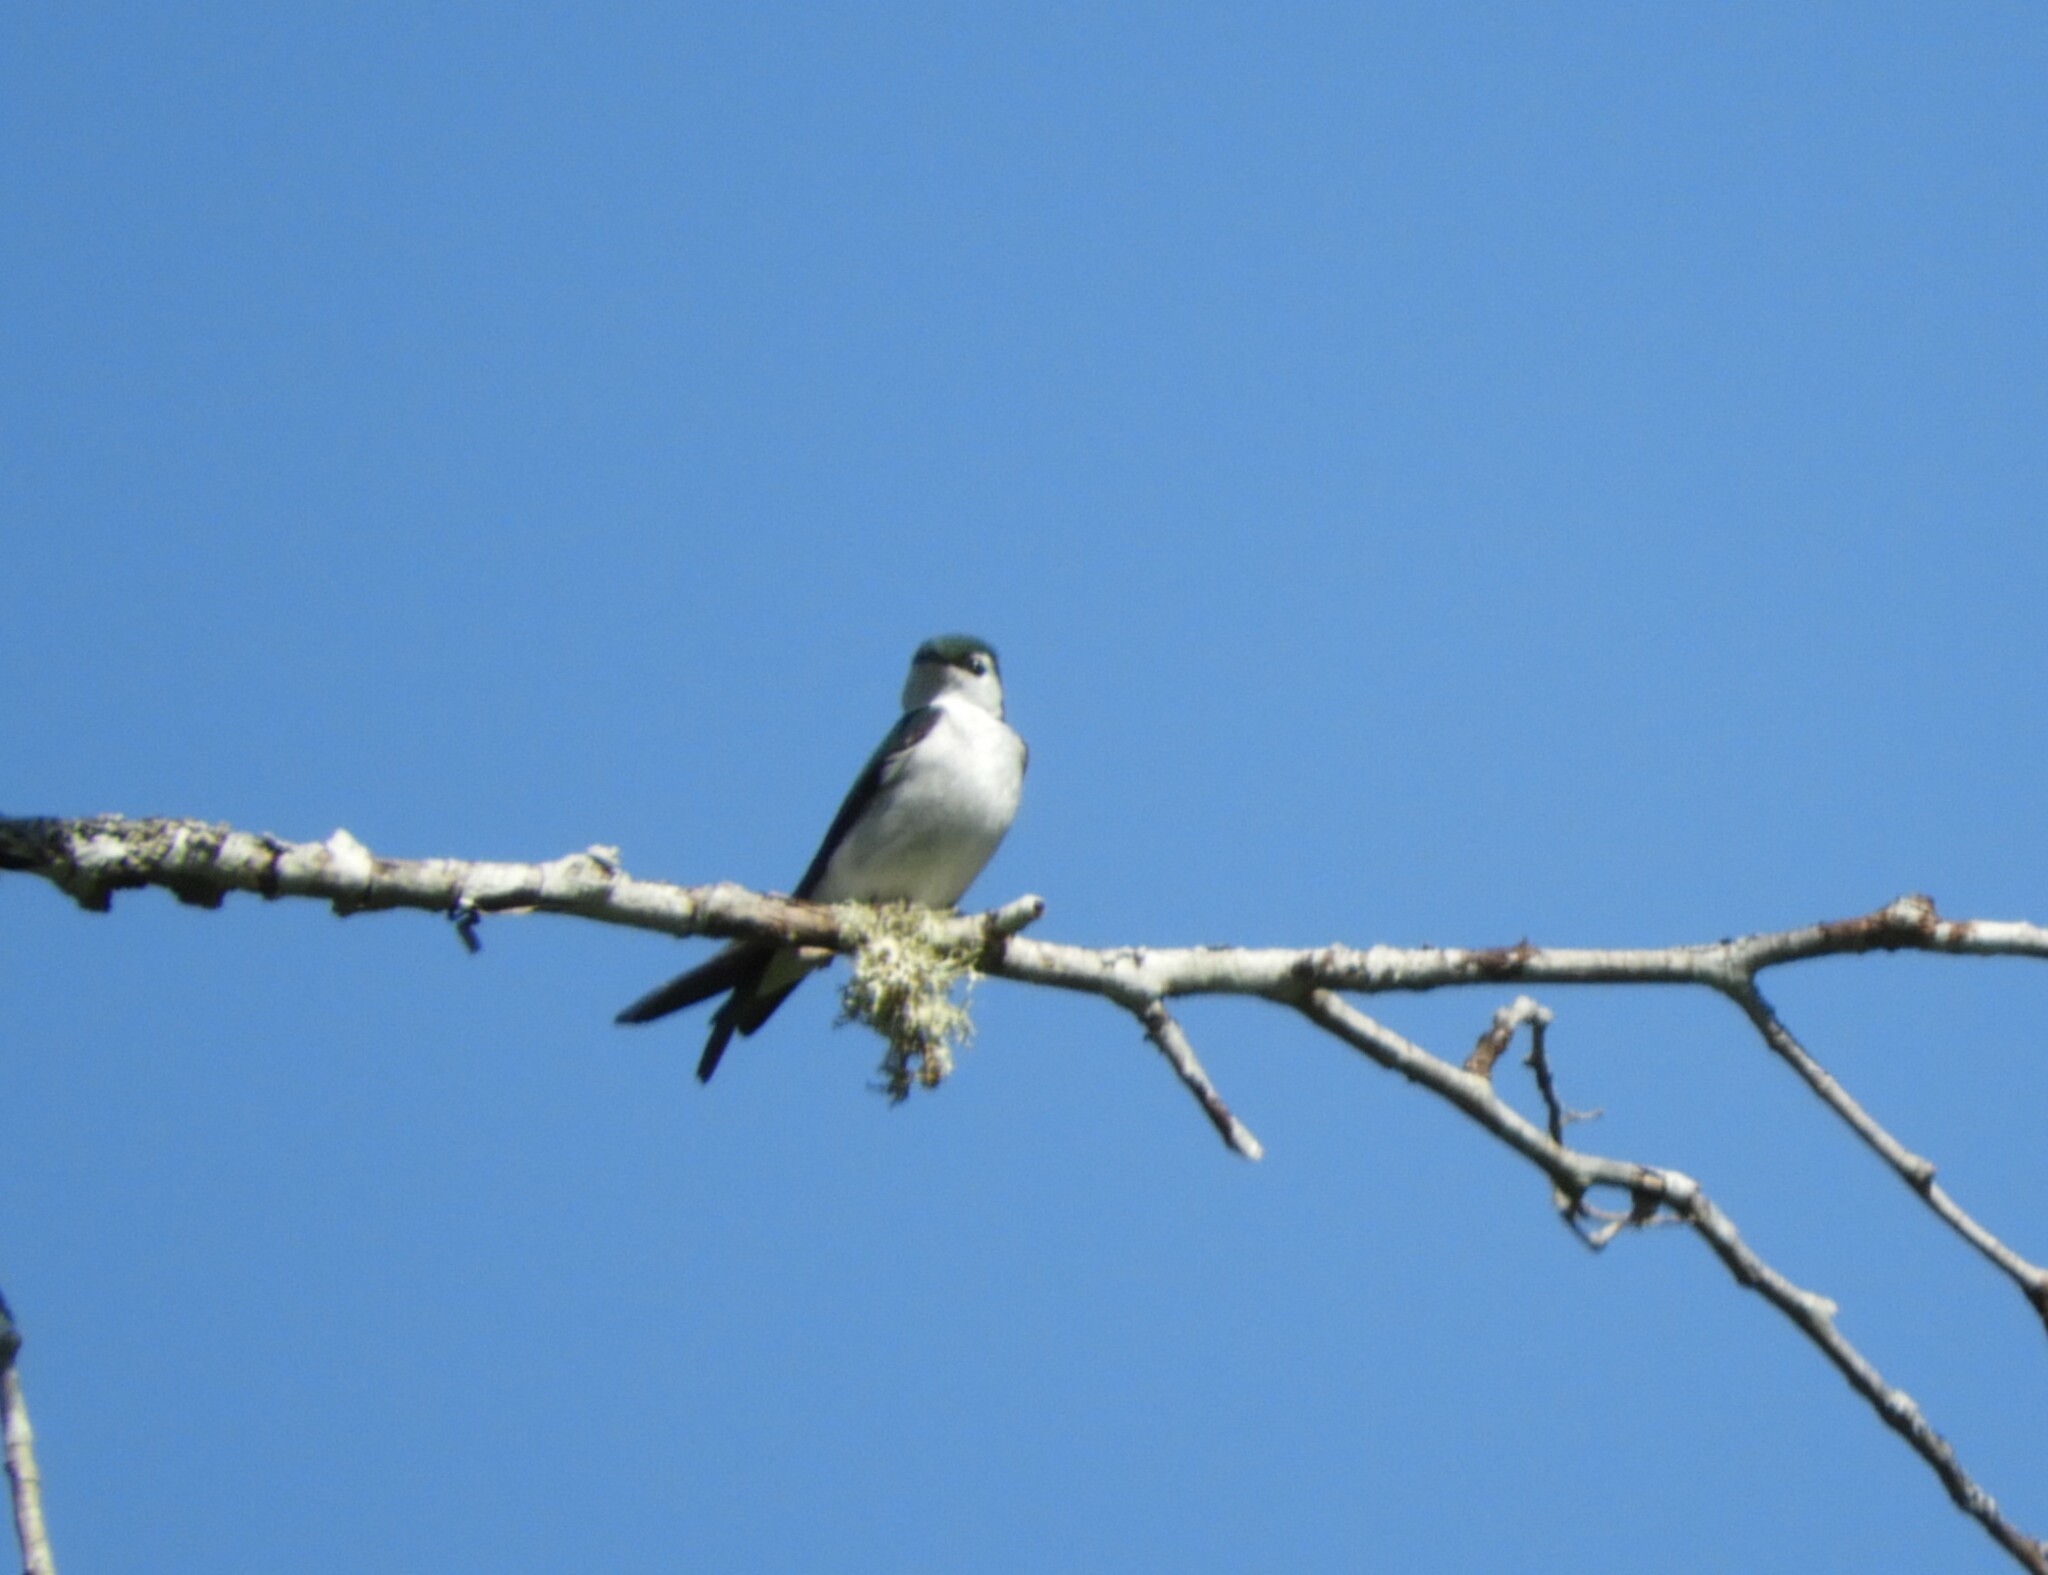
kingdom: Animalia
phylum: Chordata
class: Aves
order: Passeriformes
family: Hirundinidae
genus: Tachycineta
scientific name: Tachycineta thalassina
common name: Violet-green swallow
